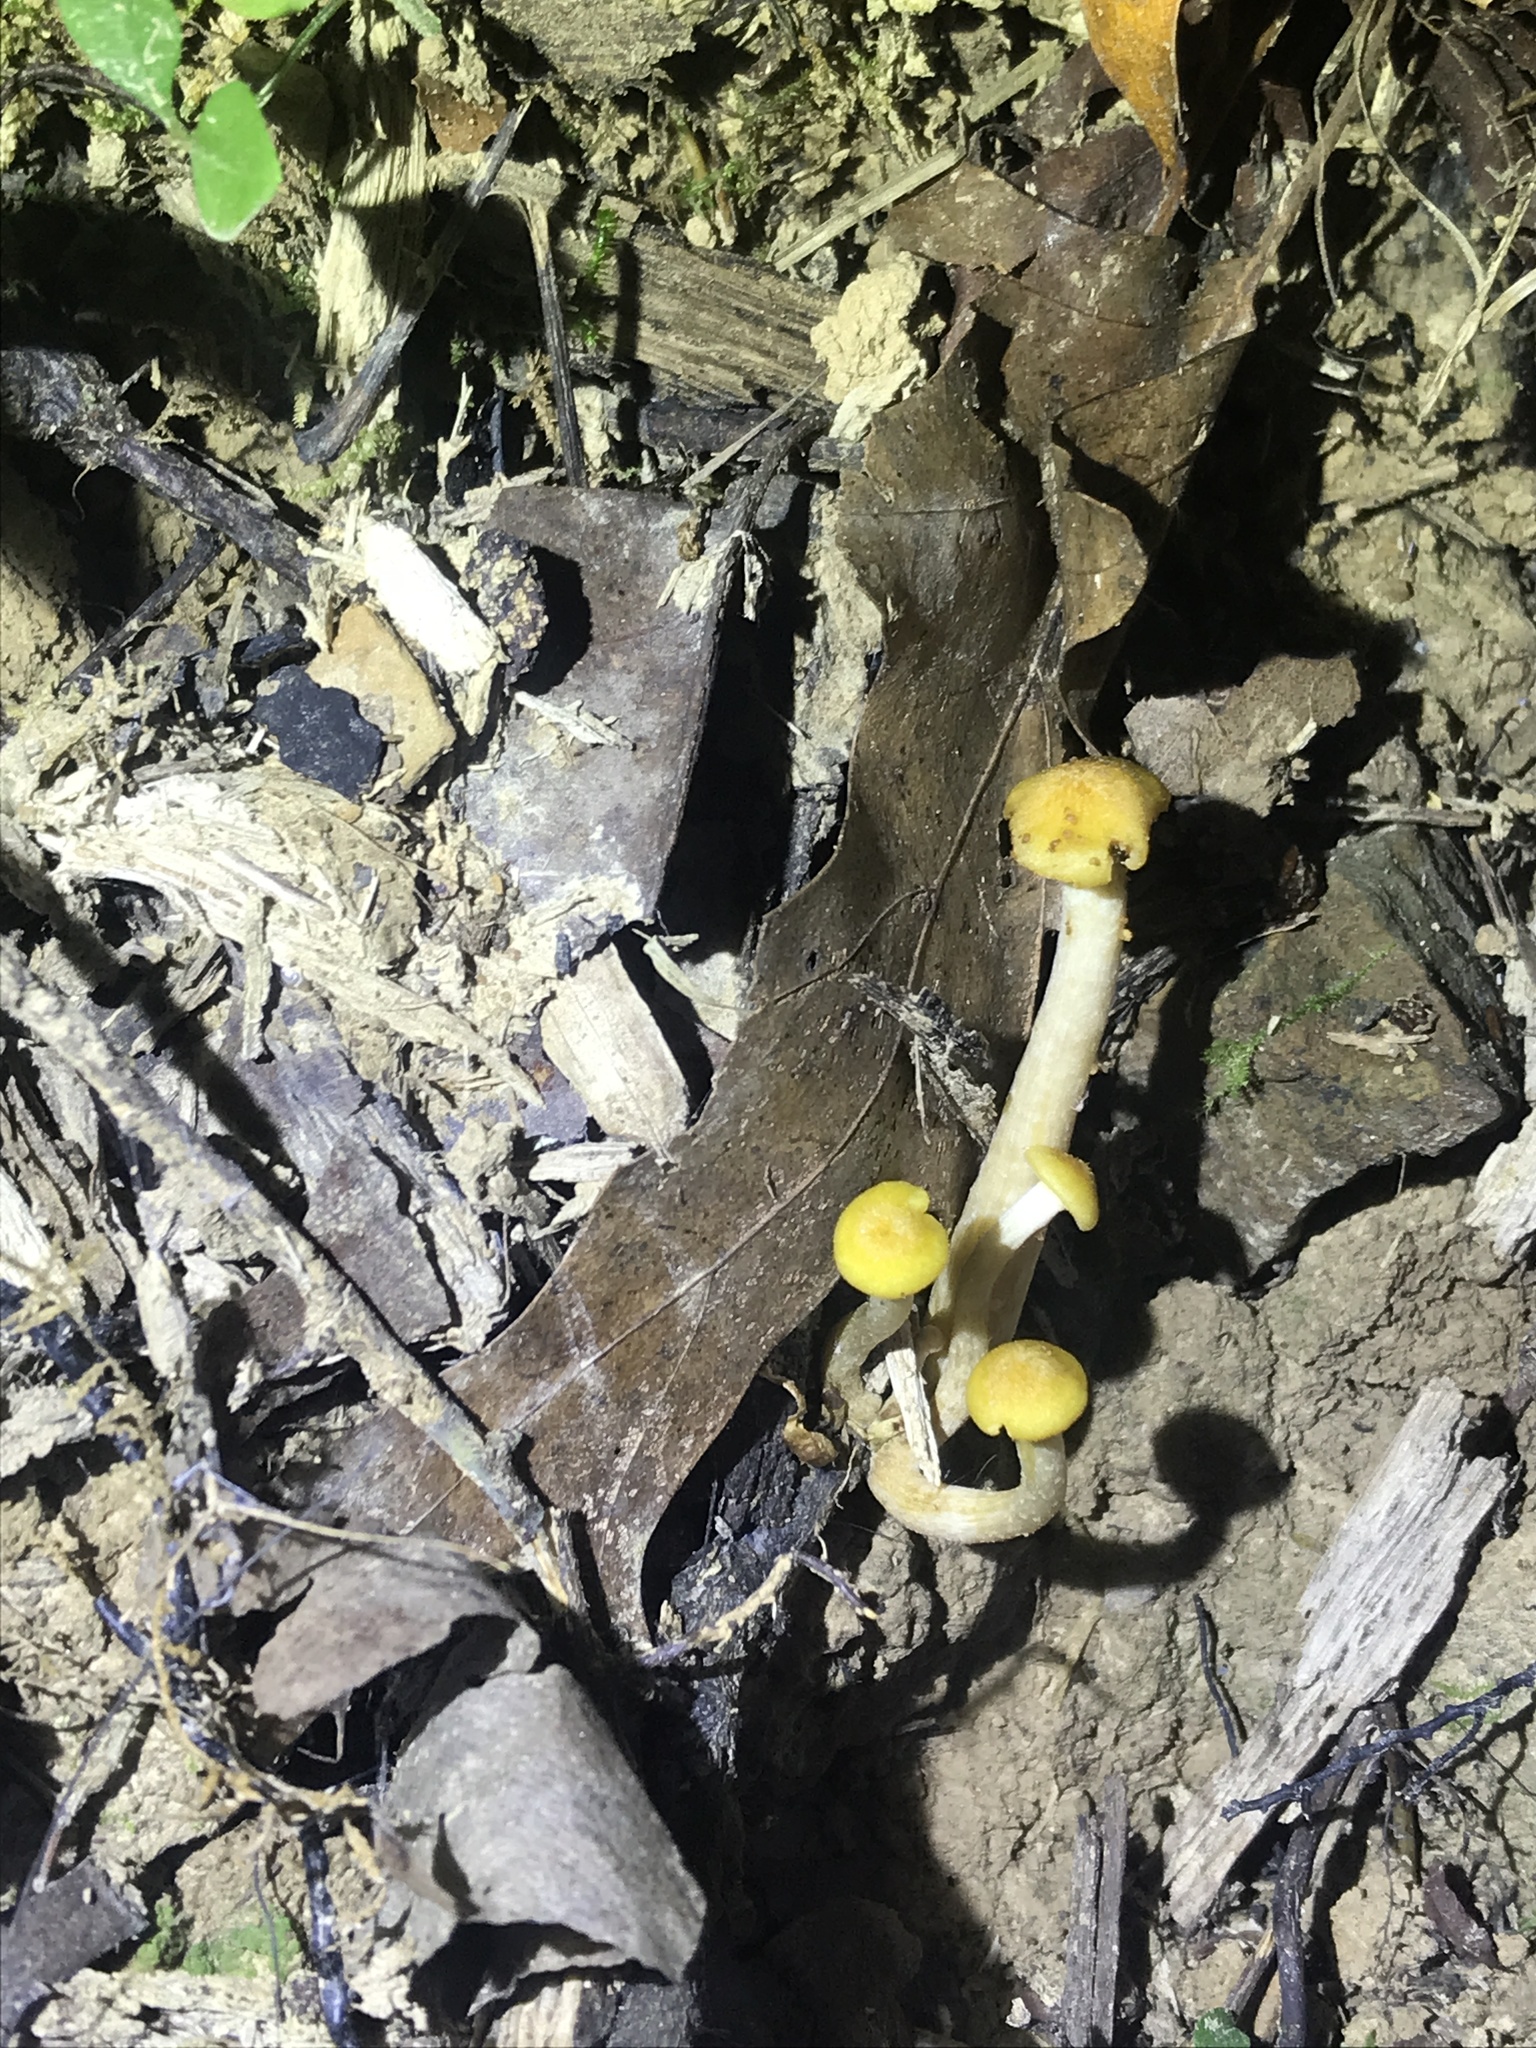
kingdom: Fungi
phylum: Basidiomycota
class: Agaricomycetes
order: Agaricales
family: Physalacriaceae
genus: Desarmillaria
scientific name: Desarmillaria caespitosa
